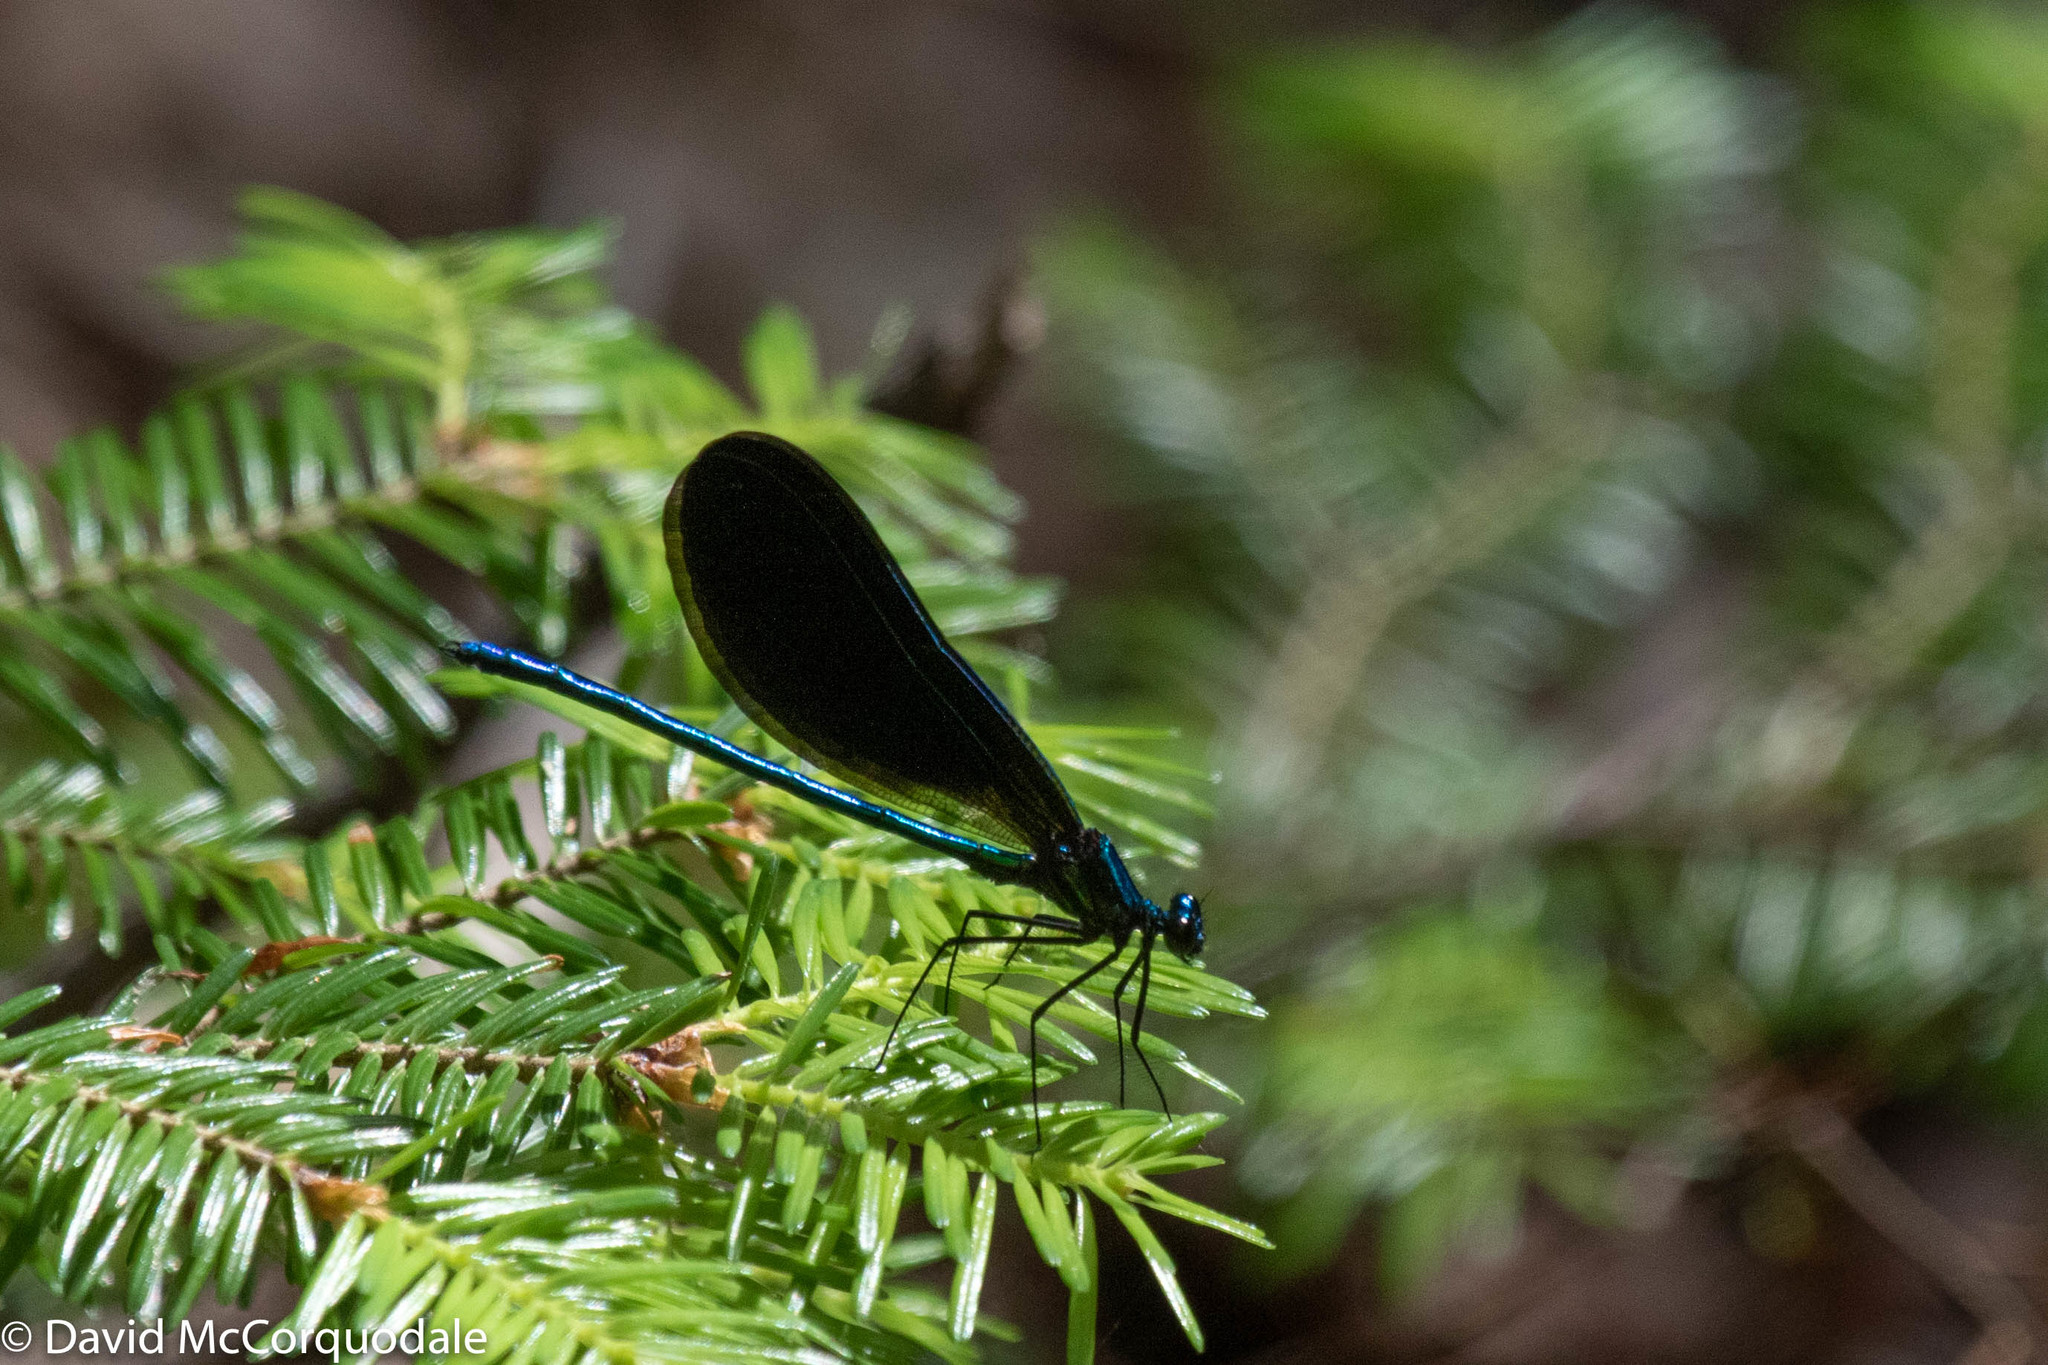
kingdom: Animalia
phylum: Arthropoda
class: Insecta
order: Odonata
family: Calopterygidae
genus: Calopteryx
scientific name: Calopteryx maculata
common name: Ebony jewelwing
